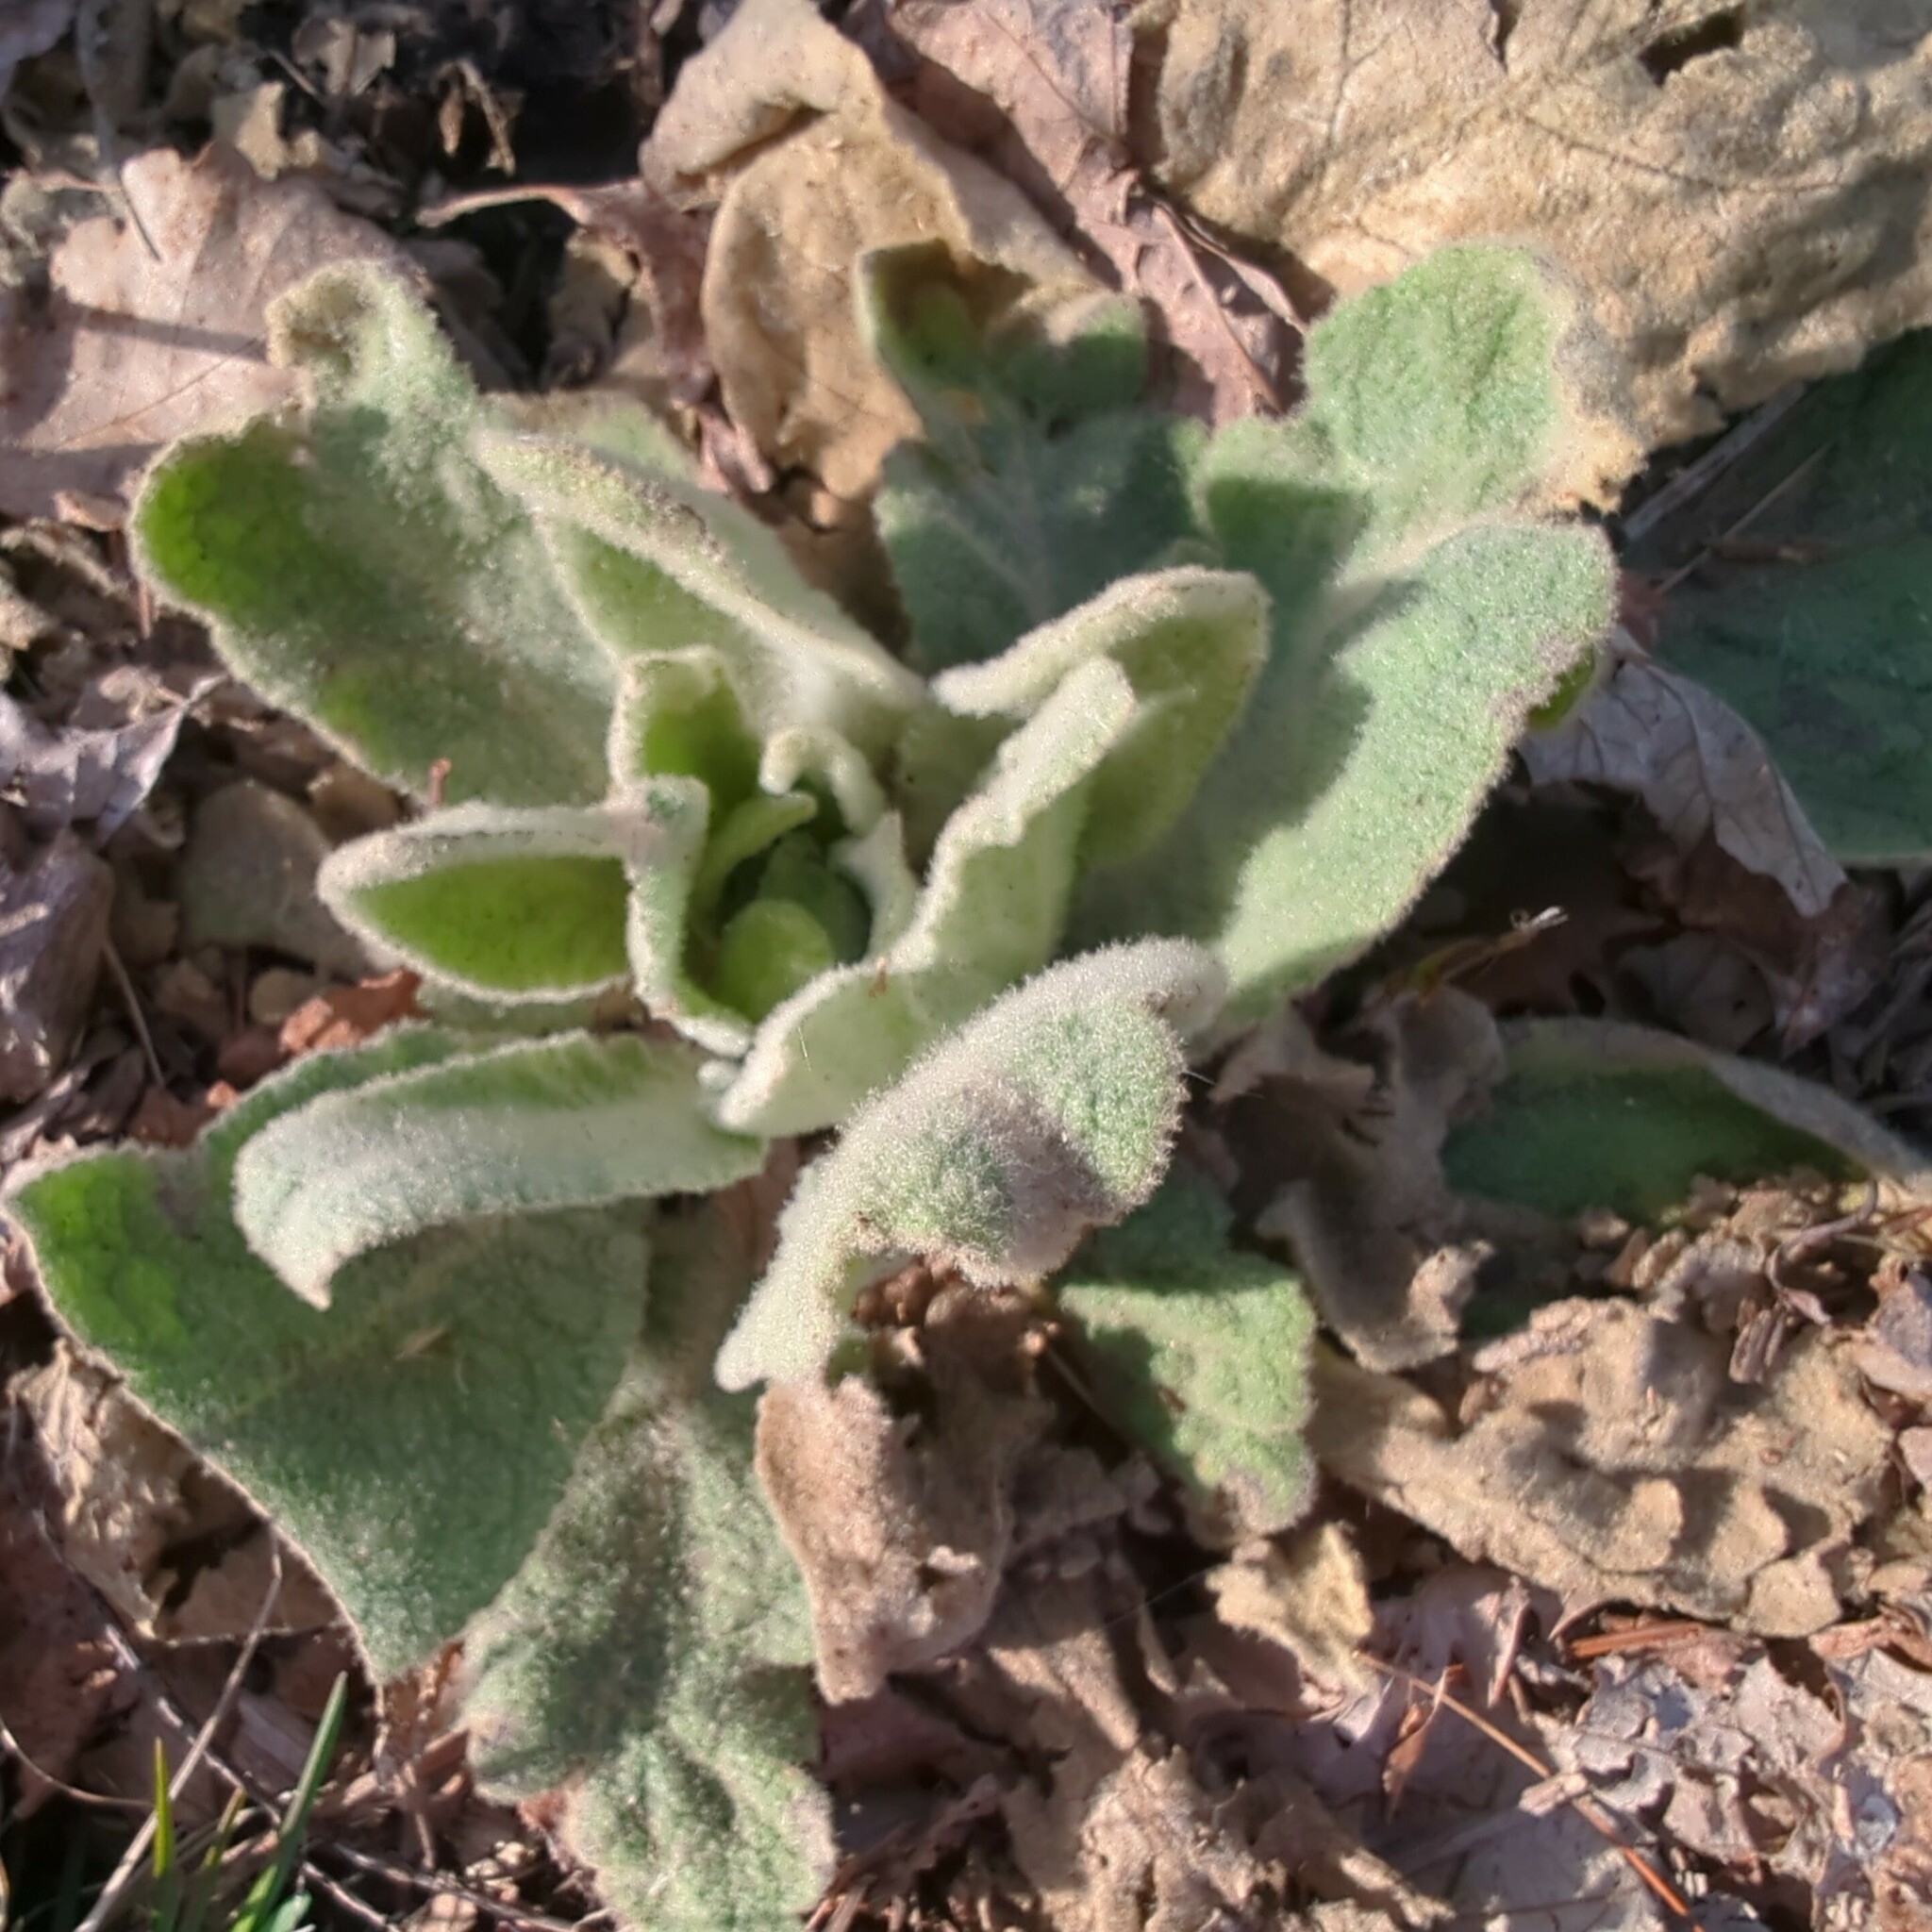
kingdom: Plantae
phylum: Tracheophyta
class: Magnoliopsida
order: Lamiales
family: Scrophulariaceae
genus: Verbascum
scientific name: Verbascum thapsus
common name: Common mullein
